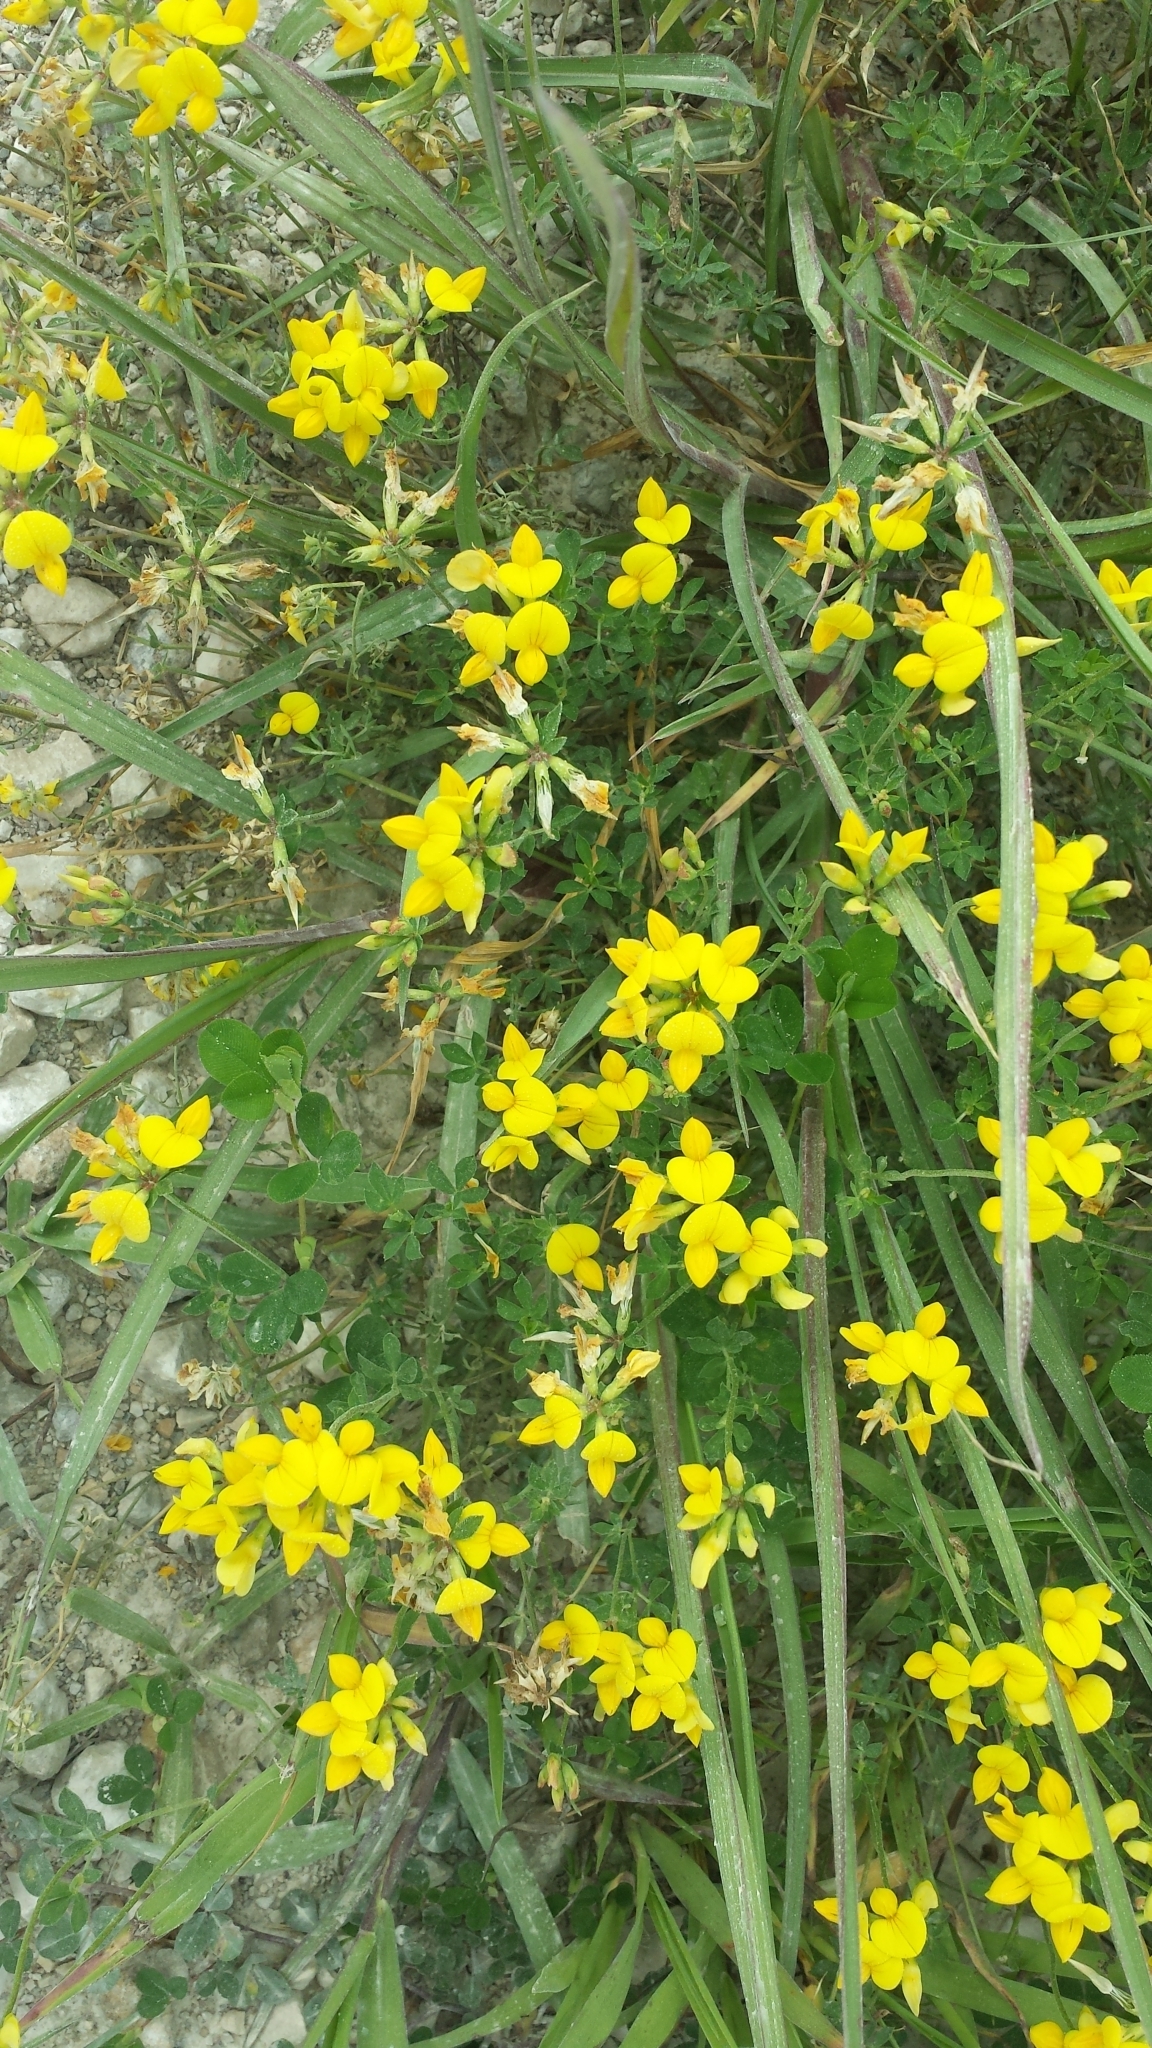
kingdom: Plantae
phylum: Tracheophyta
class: Magnoliopsida
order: Fabales
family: Fabaceae
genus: Lotus
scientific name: Lotus corniculatus
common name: Common bird's-foot-trefoil
